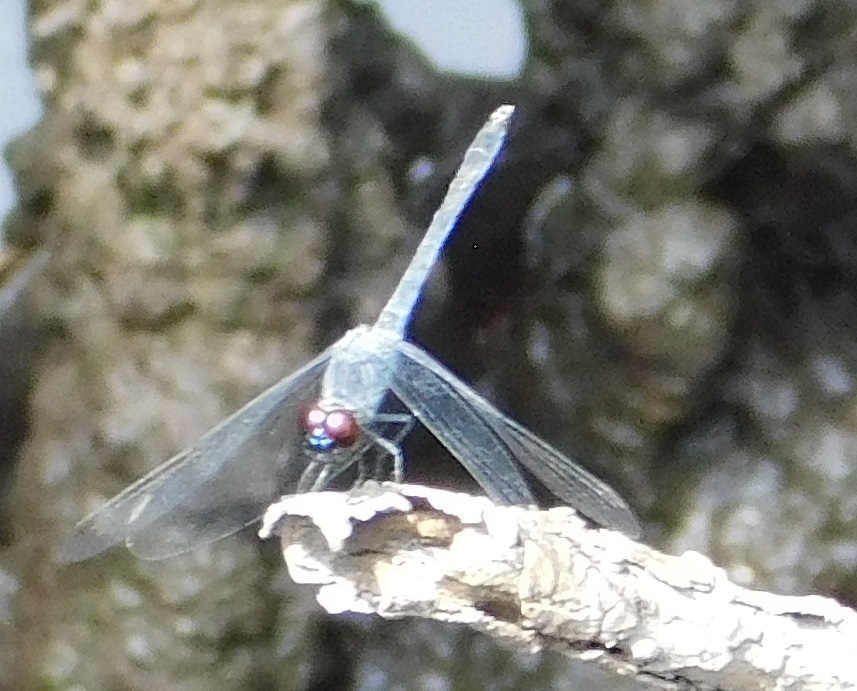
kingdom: Animalia
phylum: Arthropoda
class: Insecta
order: Odonata
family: Libellulidae
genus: Erythrodiplax
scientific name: Erythrodiplax berenice
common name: Seaside dragonlet
